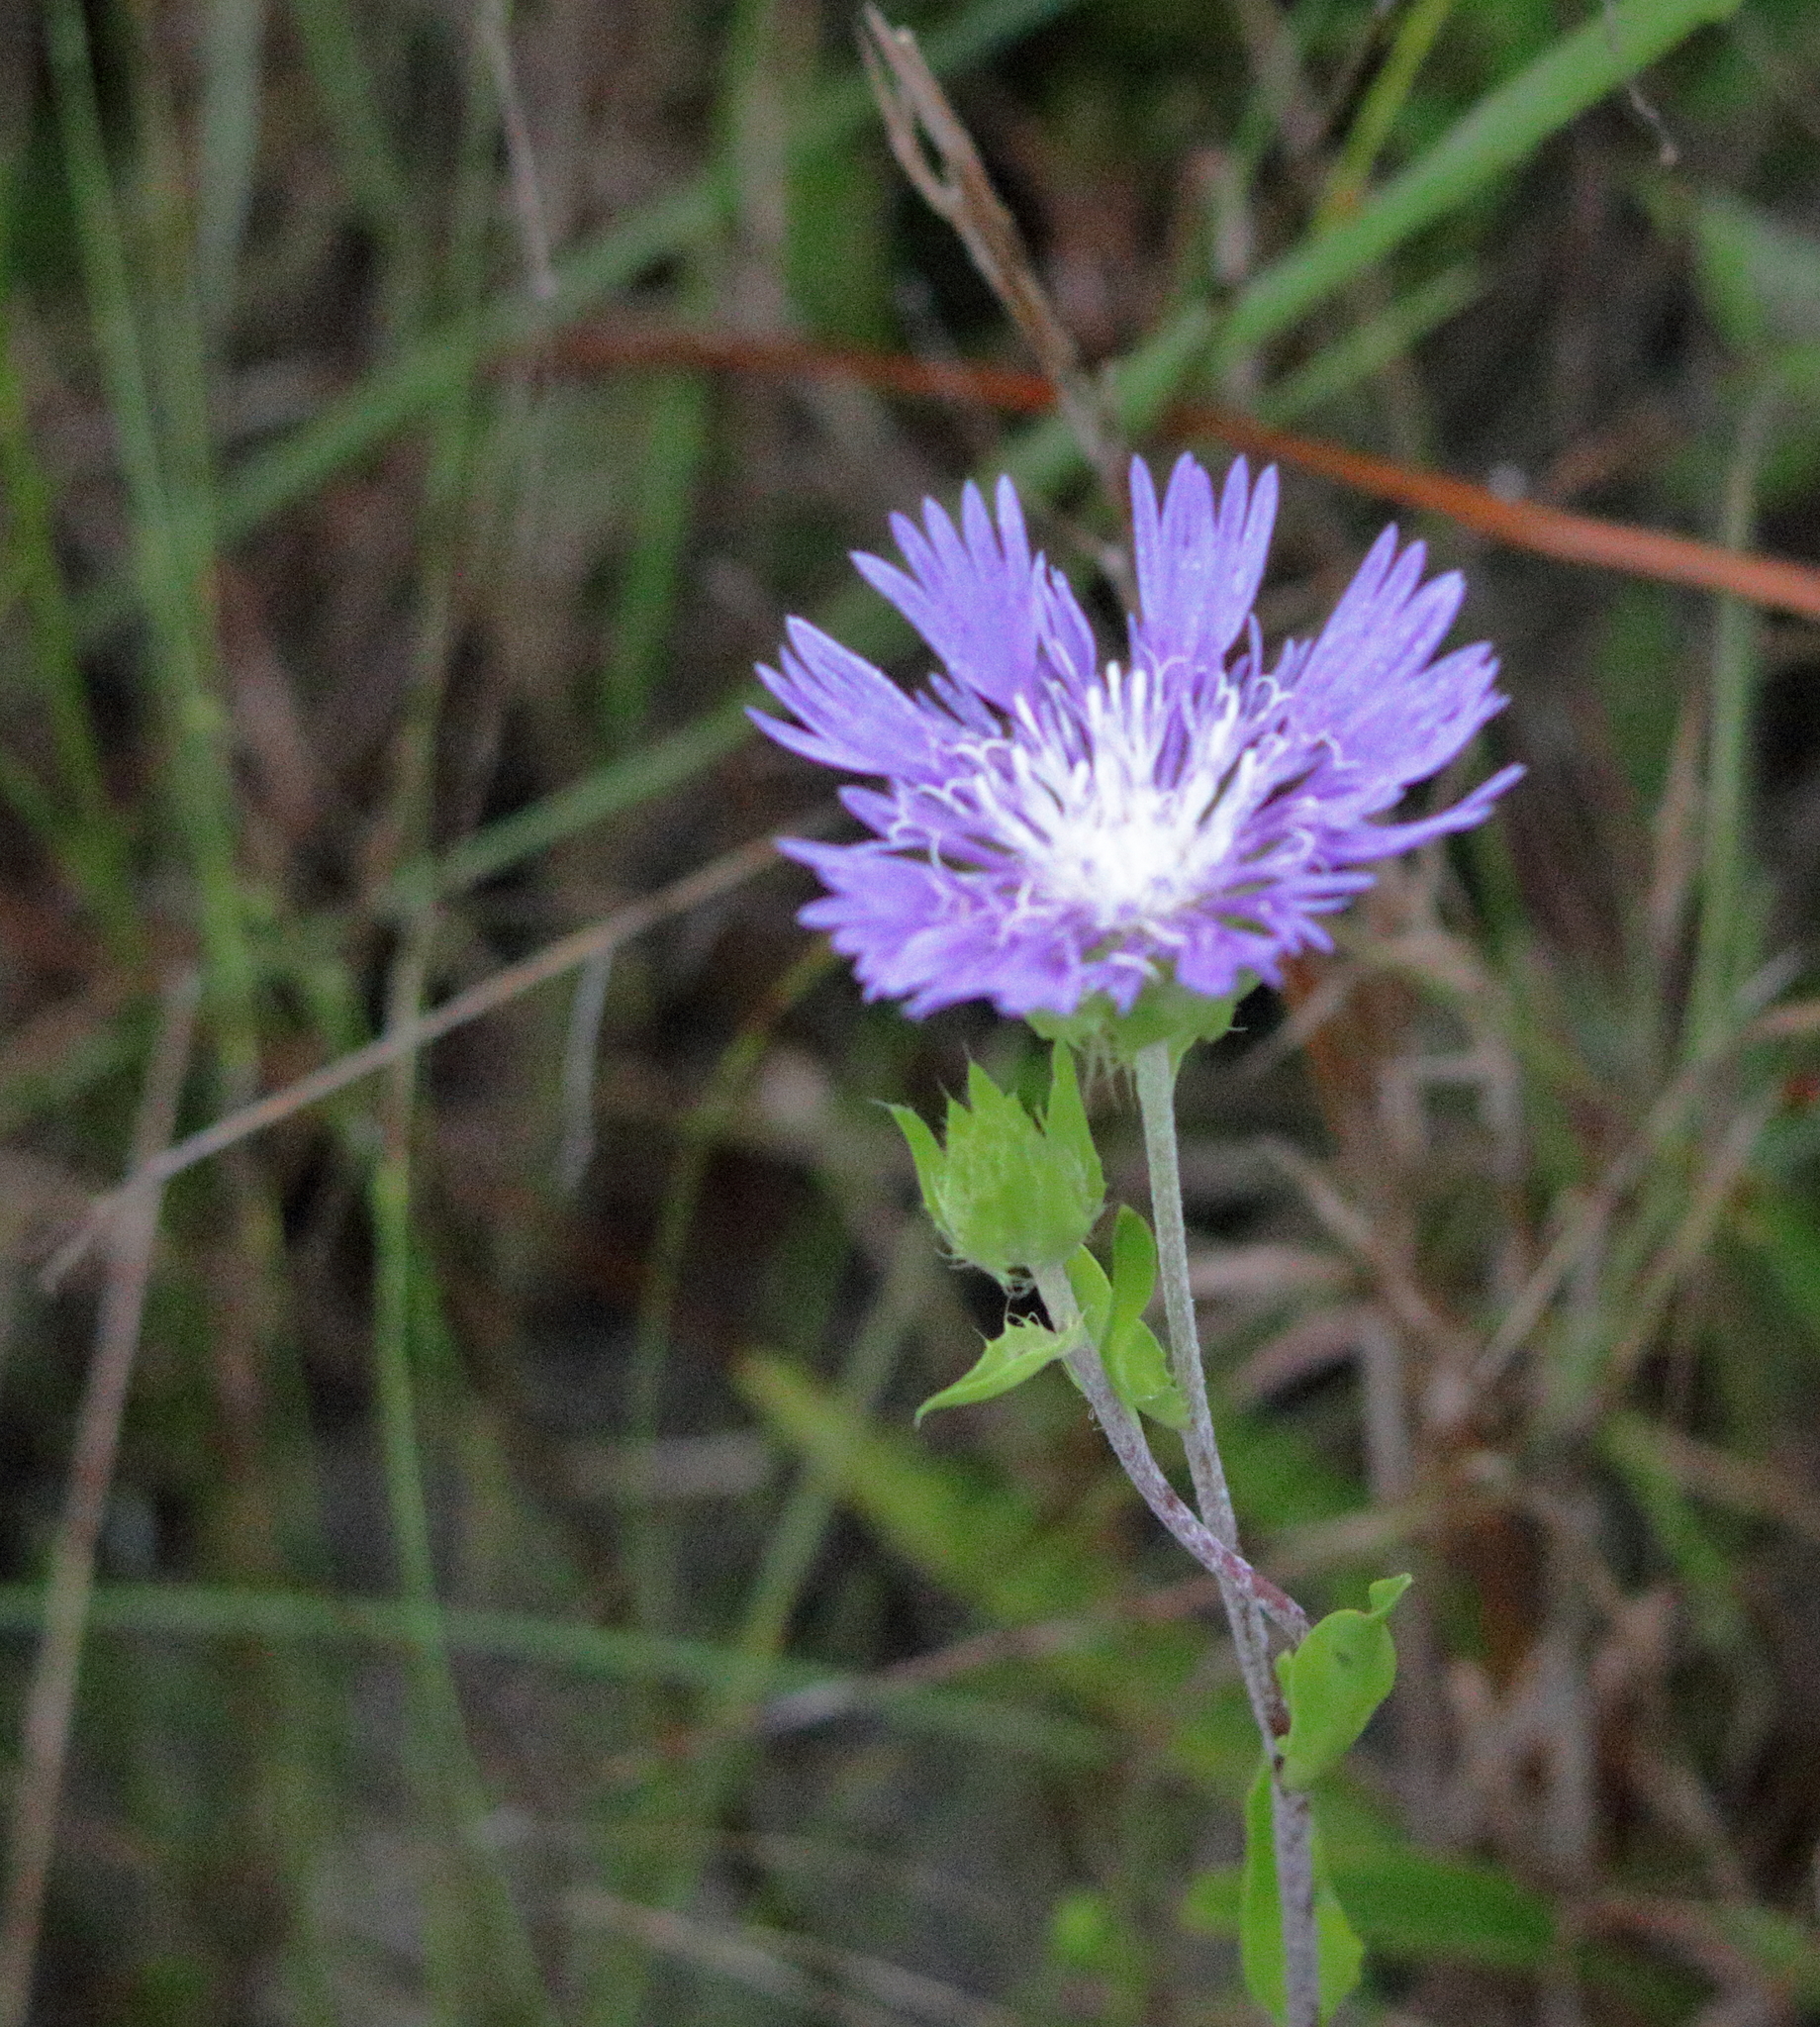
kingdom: Plantae
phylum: Tracheophyta
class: Magnoliopsida
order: Asterales
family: Asteraceae
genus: Stokesia
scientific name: Stokesia laevis
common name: Stokes'-aster
